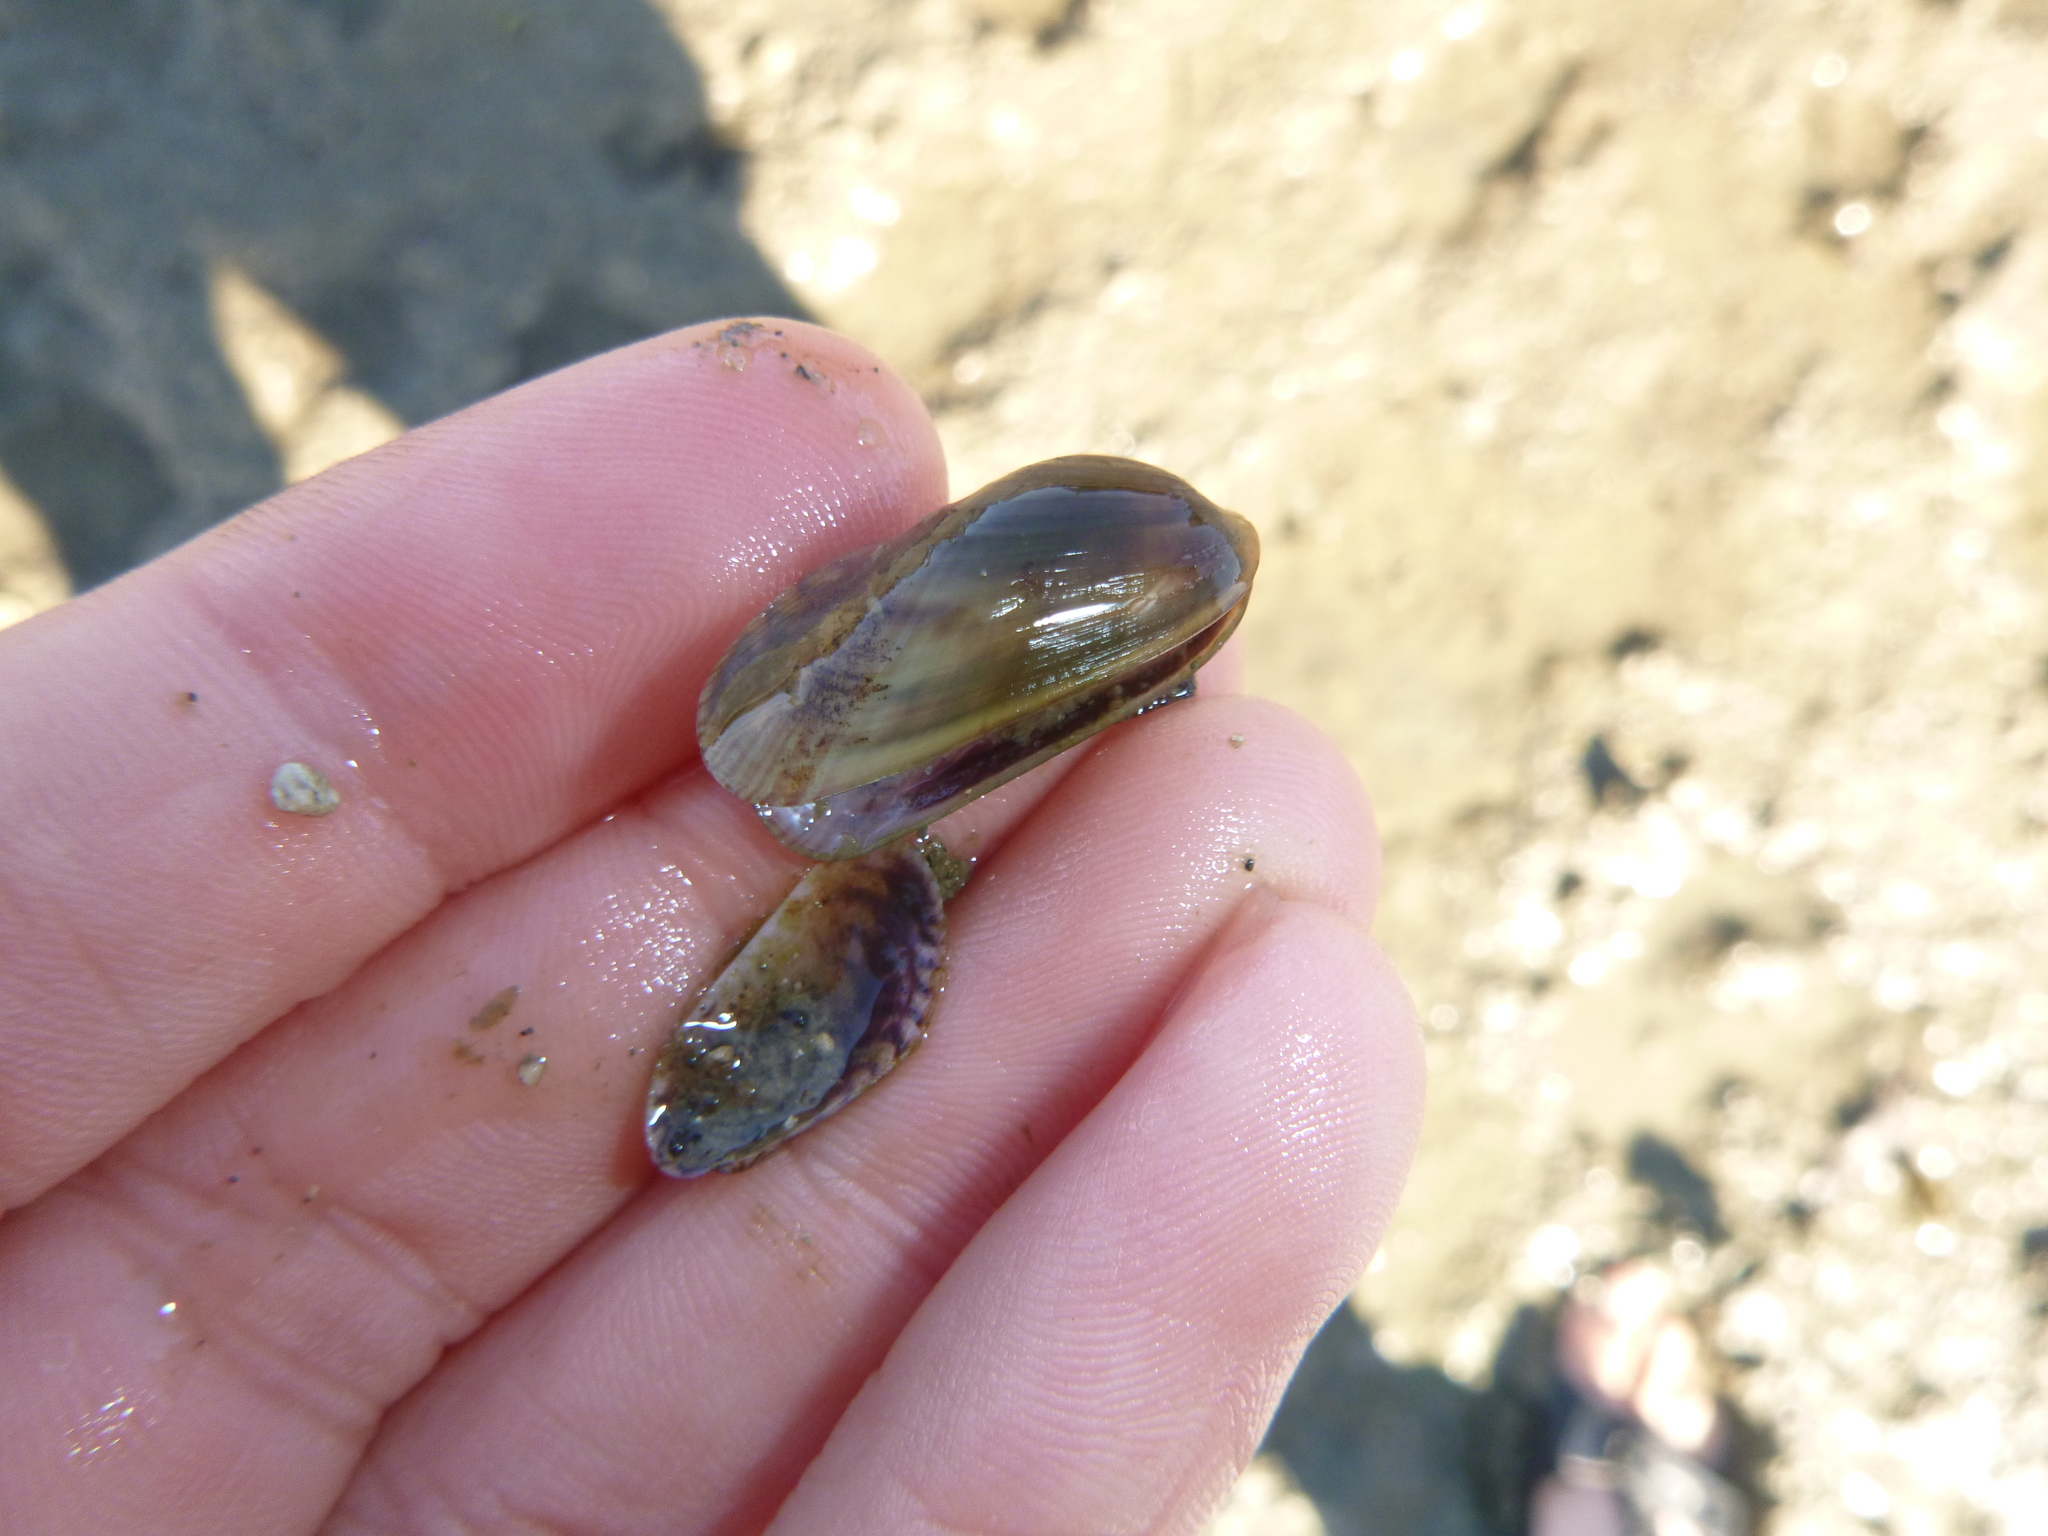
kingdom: Animalia
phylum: Mollusca
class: Bivalvia
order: Mytilida
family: Mytilidae
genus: Arcuatula
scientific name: Arcuatula senhousia
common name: Asian mussel
